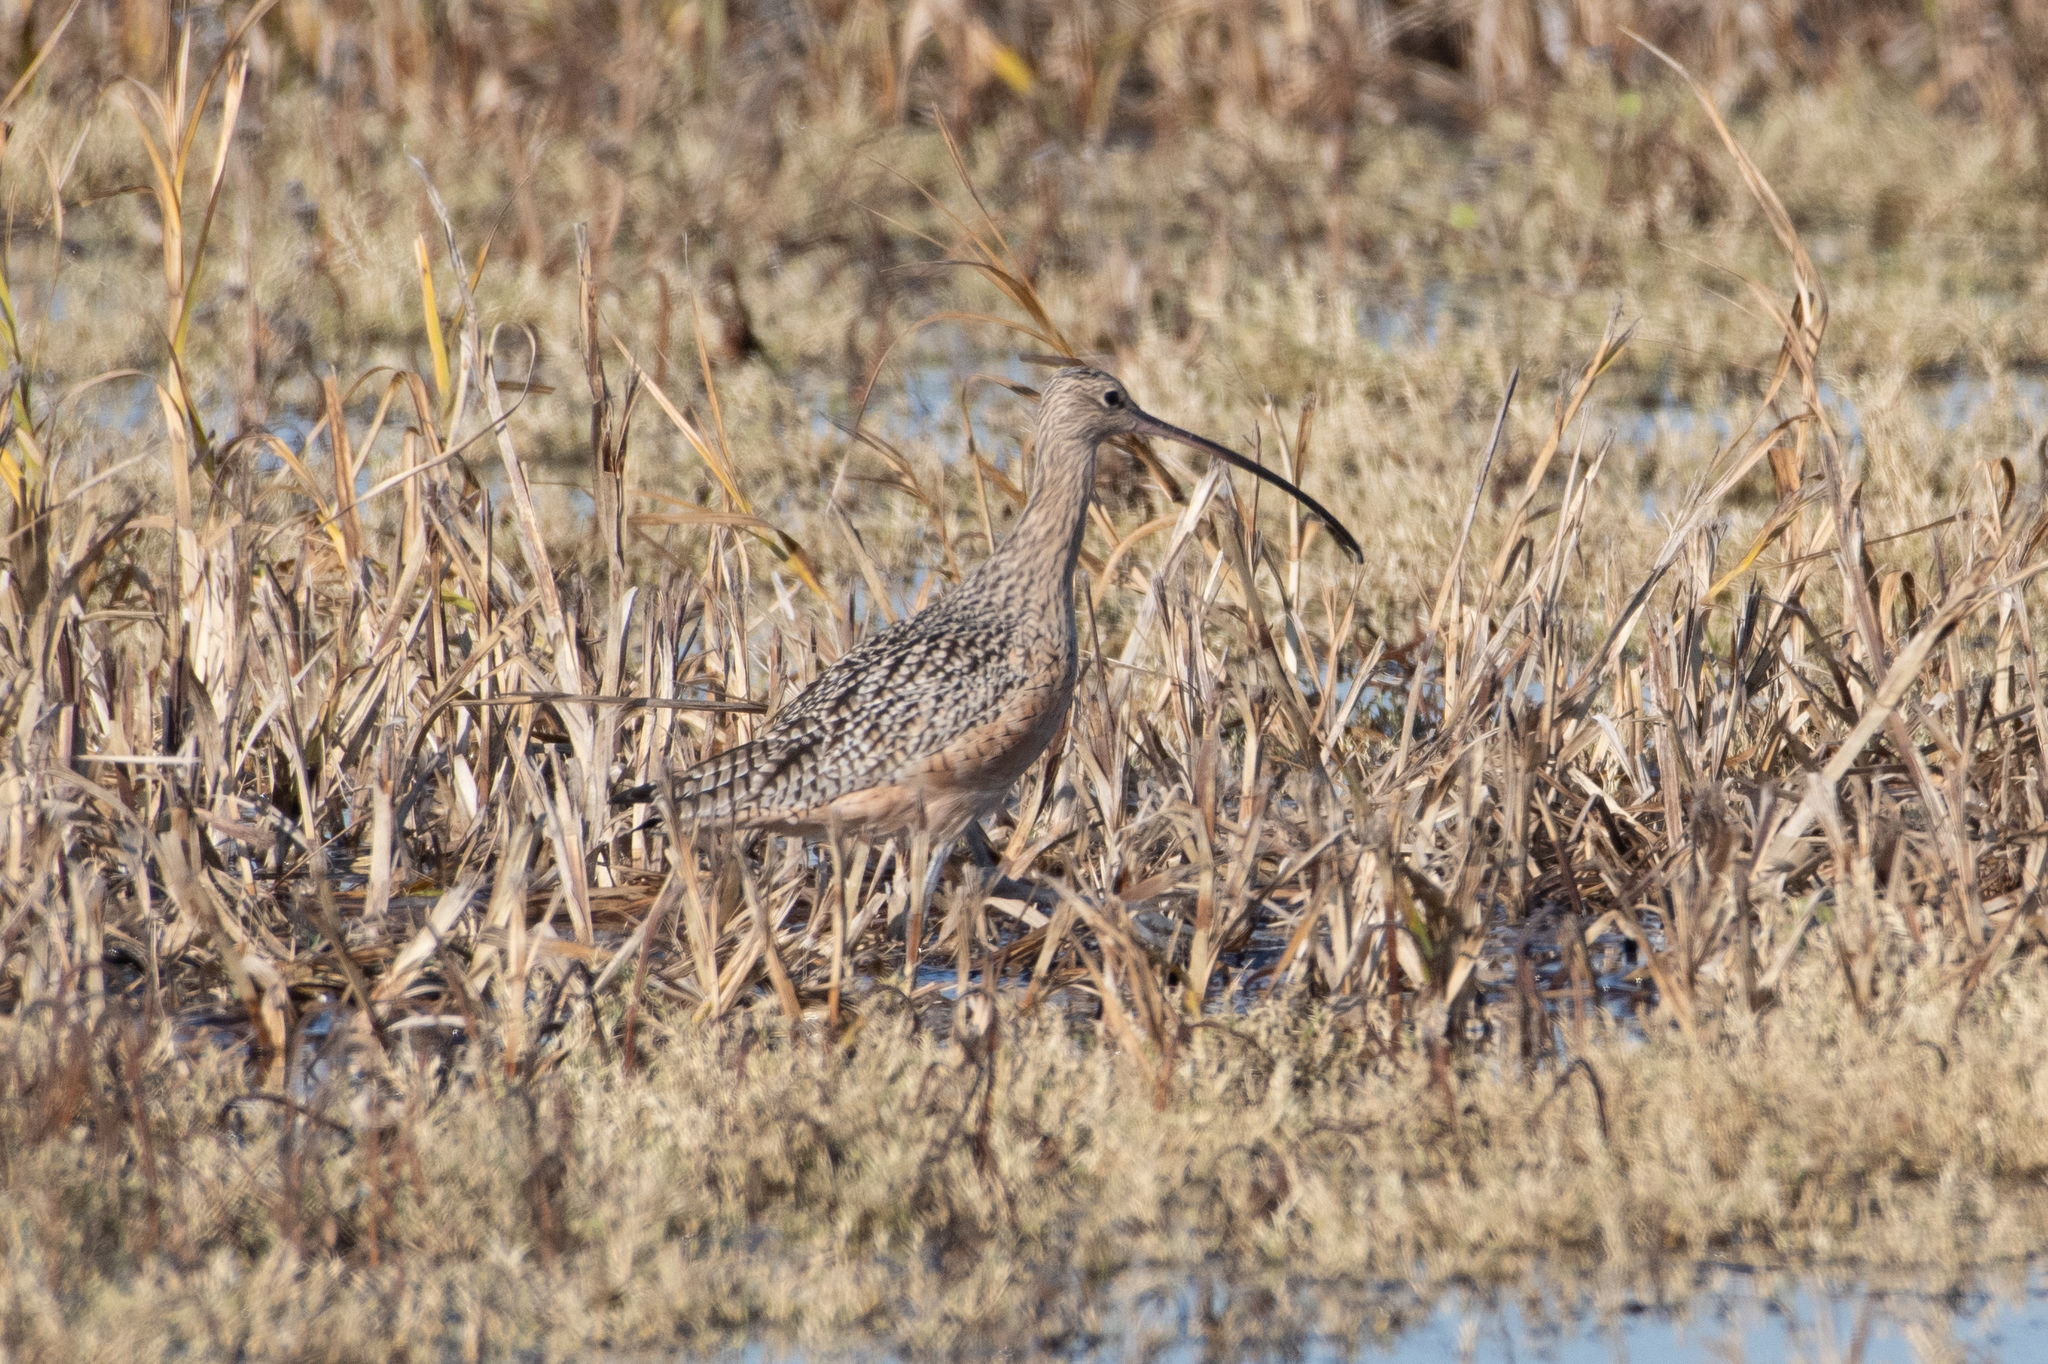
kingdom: Animalia
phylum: Chordata
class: Aves
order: Charadriiformes
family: Scolopacidae
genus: Numenius
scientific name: Numenius americanus
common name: Long-billed curlew
